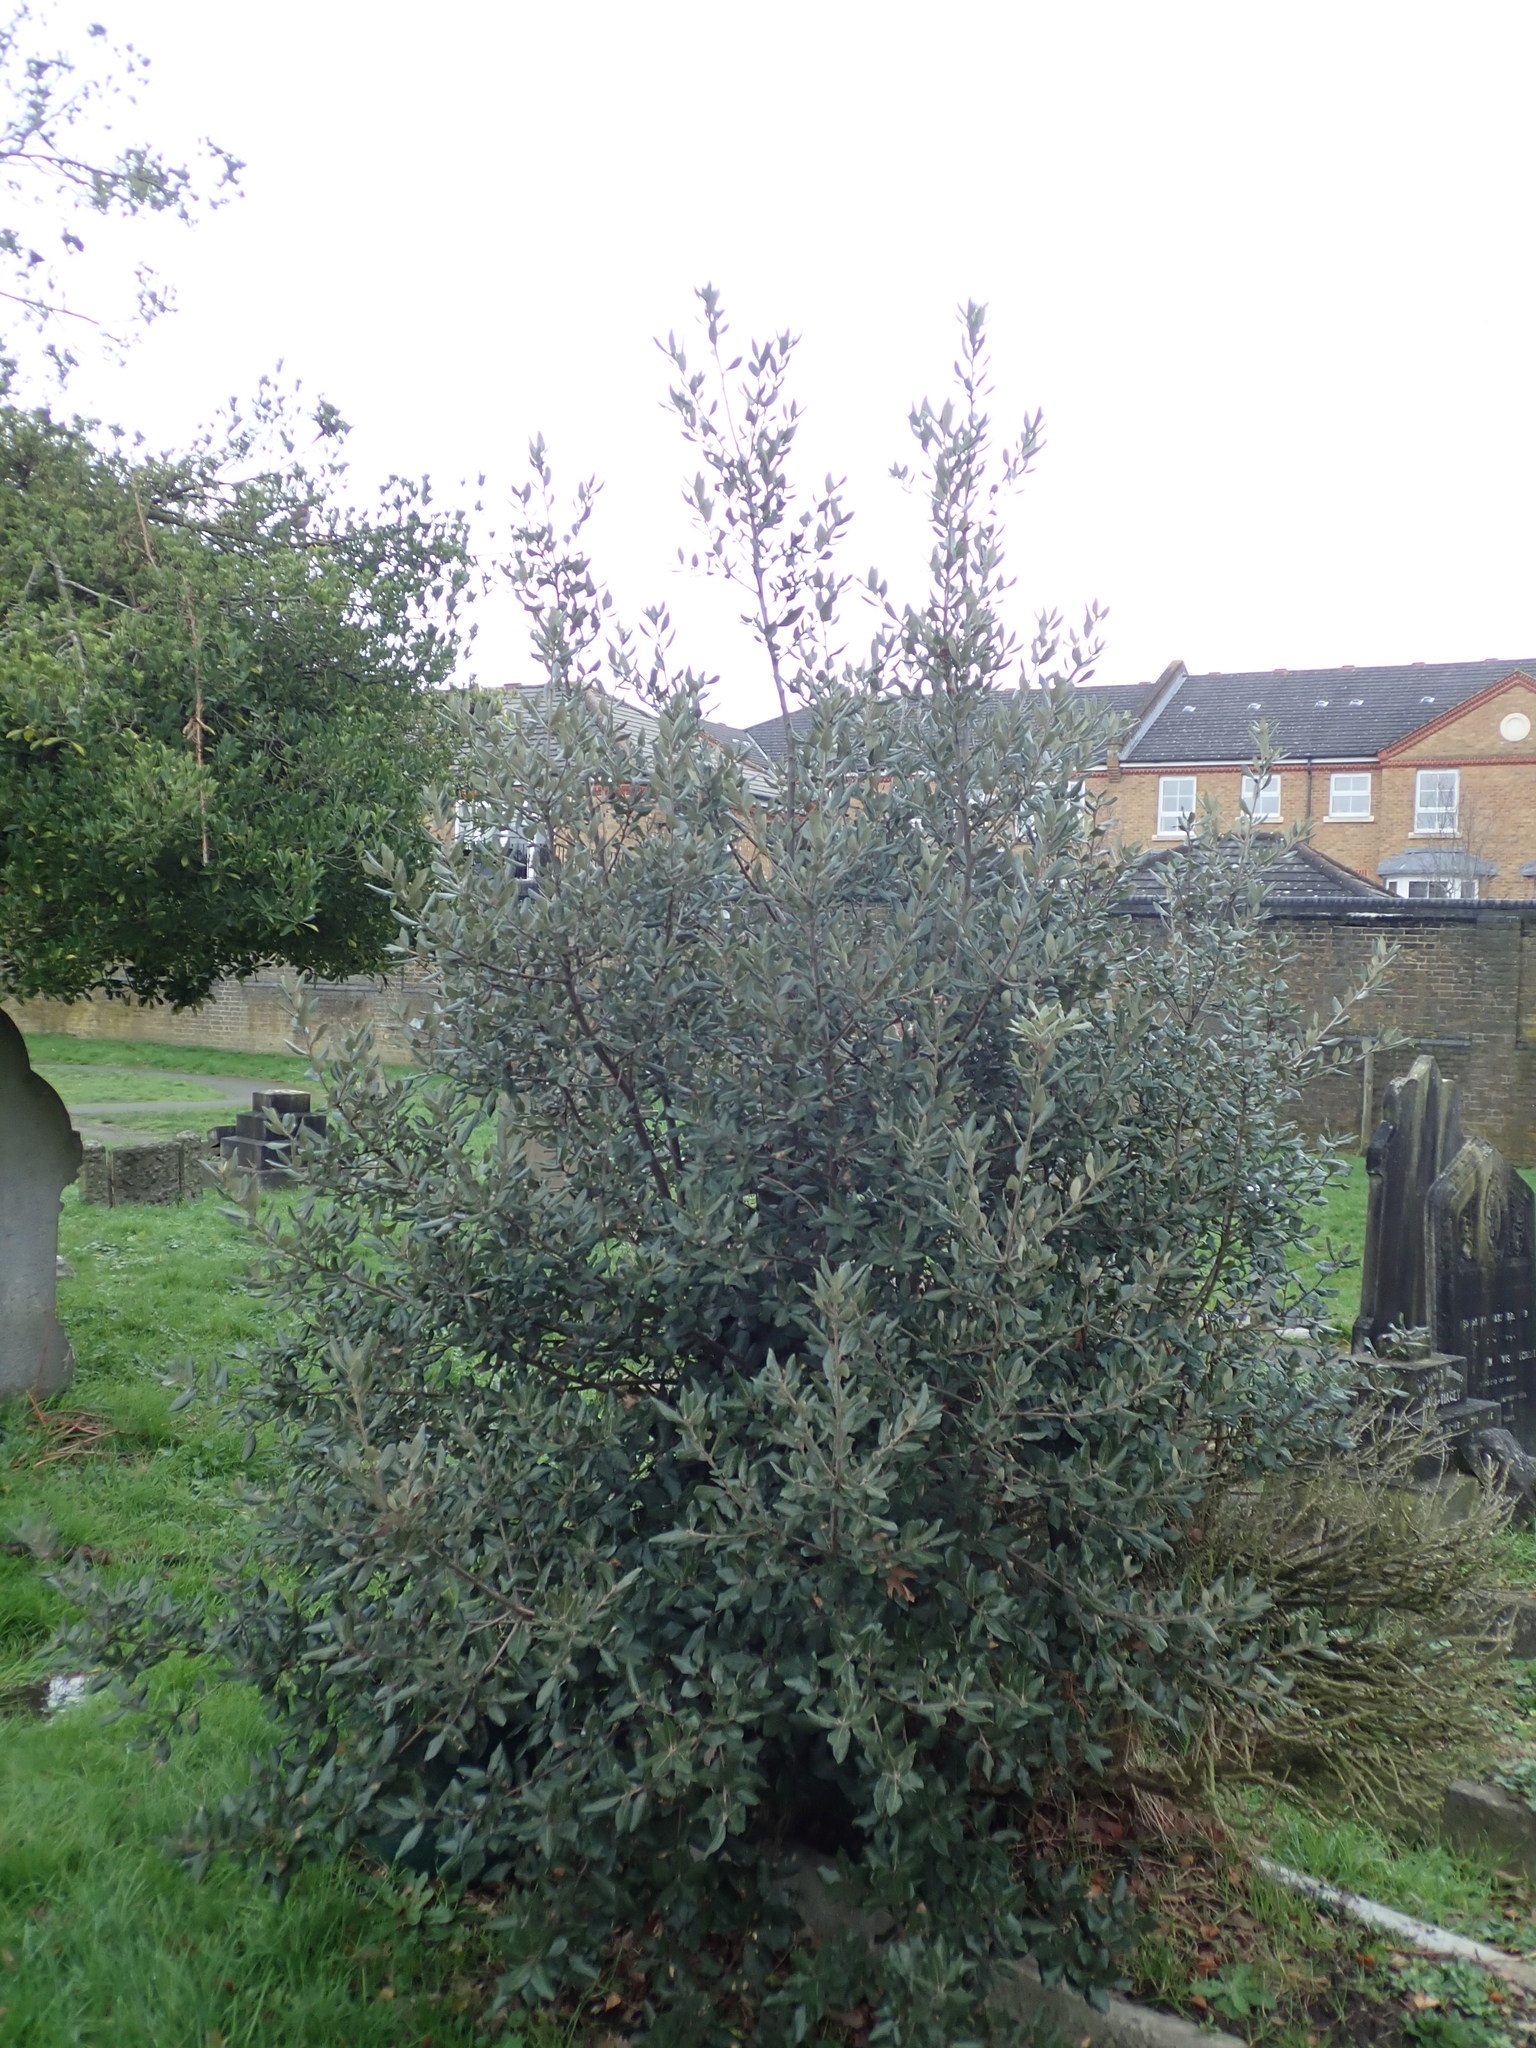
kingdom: Plantae
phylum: Tracheophyta
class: Magnoliopsida
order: Fagales
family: Fagaceae
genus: Quercus
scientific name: Quercus ilex
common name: Evergreen oak
